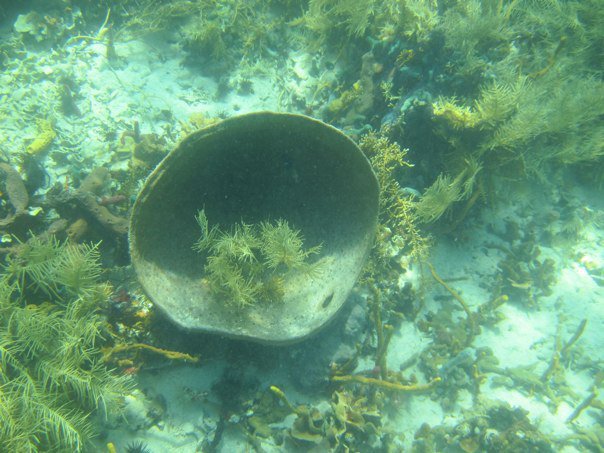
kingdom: Animalia
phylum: Porifera
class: Demospongiae
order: Dictyoceratida
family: Irciniidae
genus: Ircinia
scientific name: Ircinia campana
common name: Vase sponge
